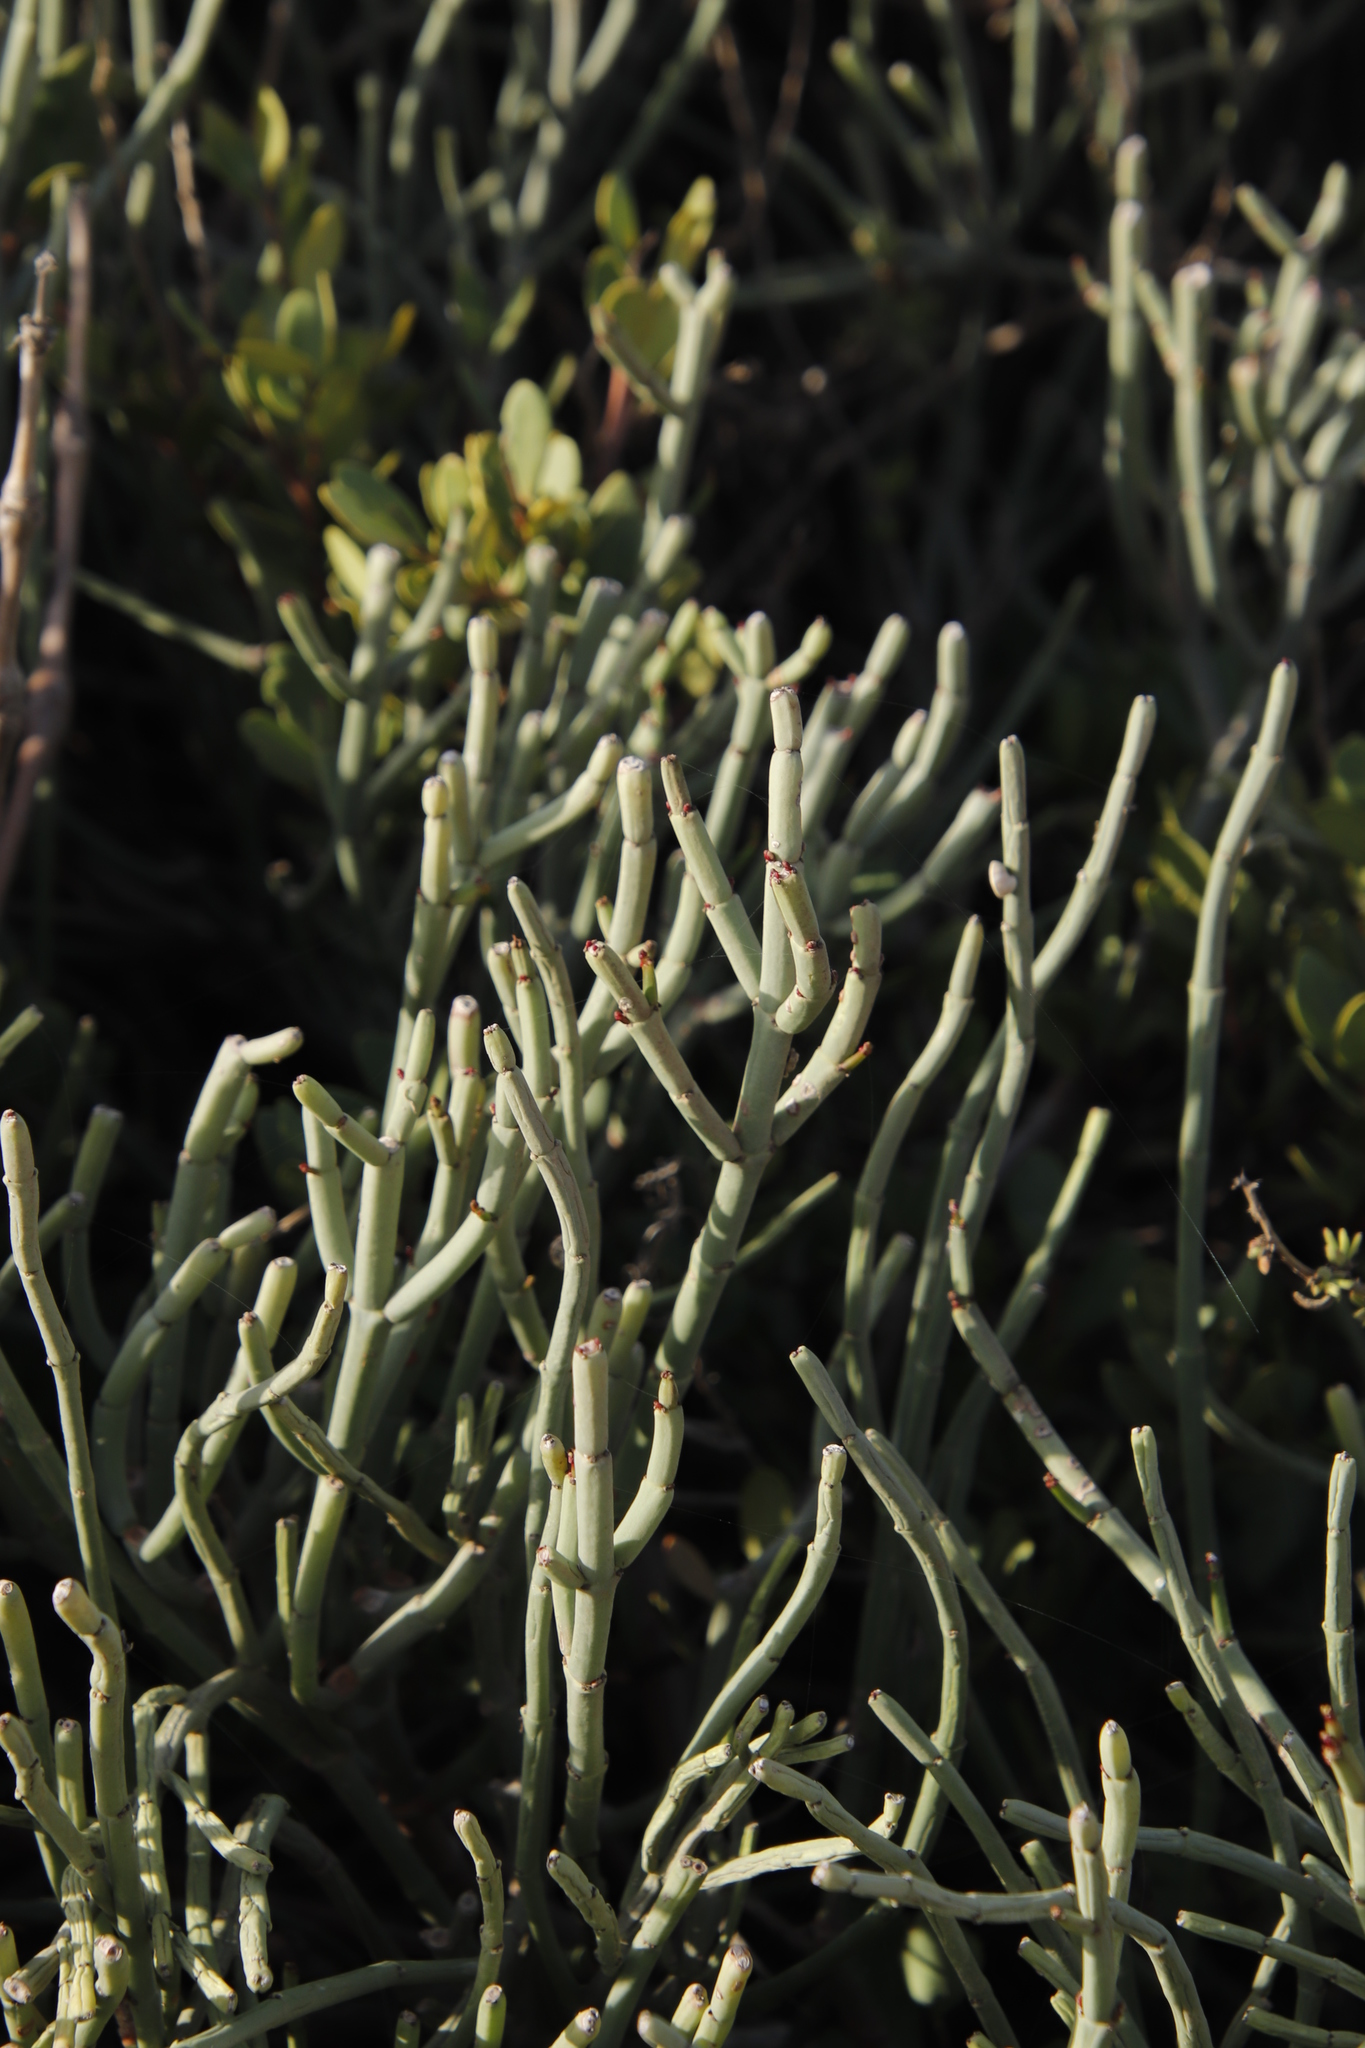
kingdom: Plantae
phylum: Tracheophyta
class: Magnoliopsida
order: Malpighiales
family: Euphorbiaceae
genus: Euphorbia
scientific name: Euphorbia burmanni
